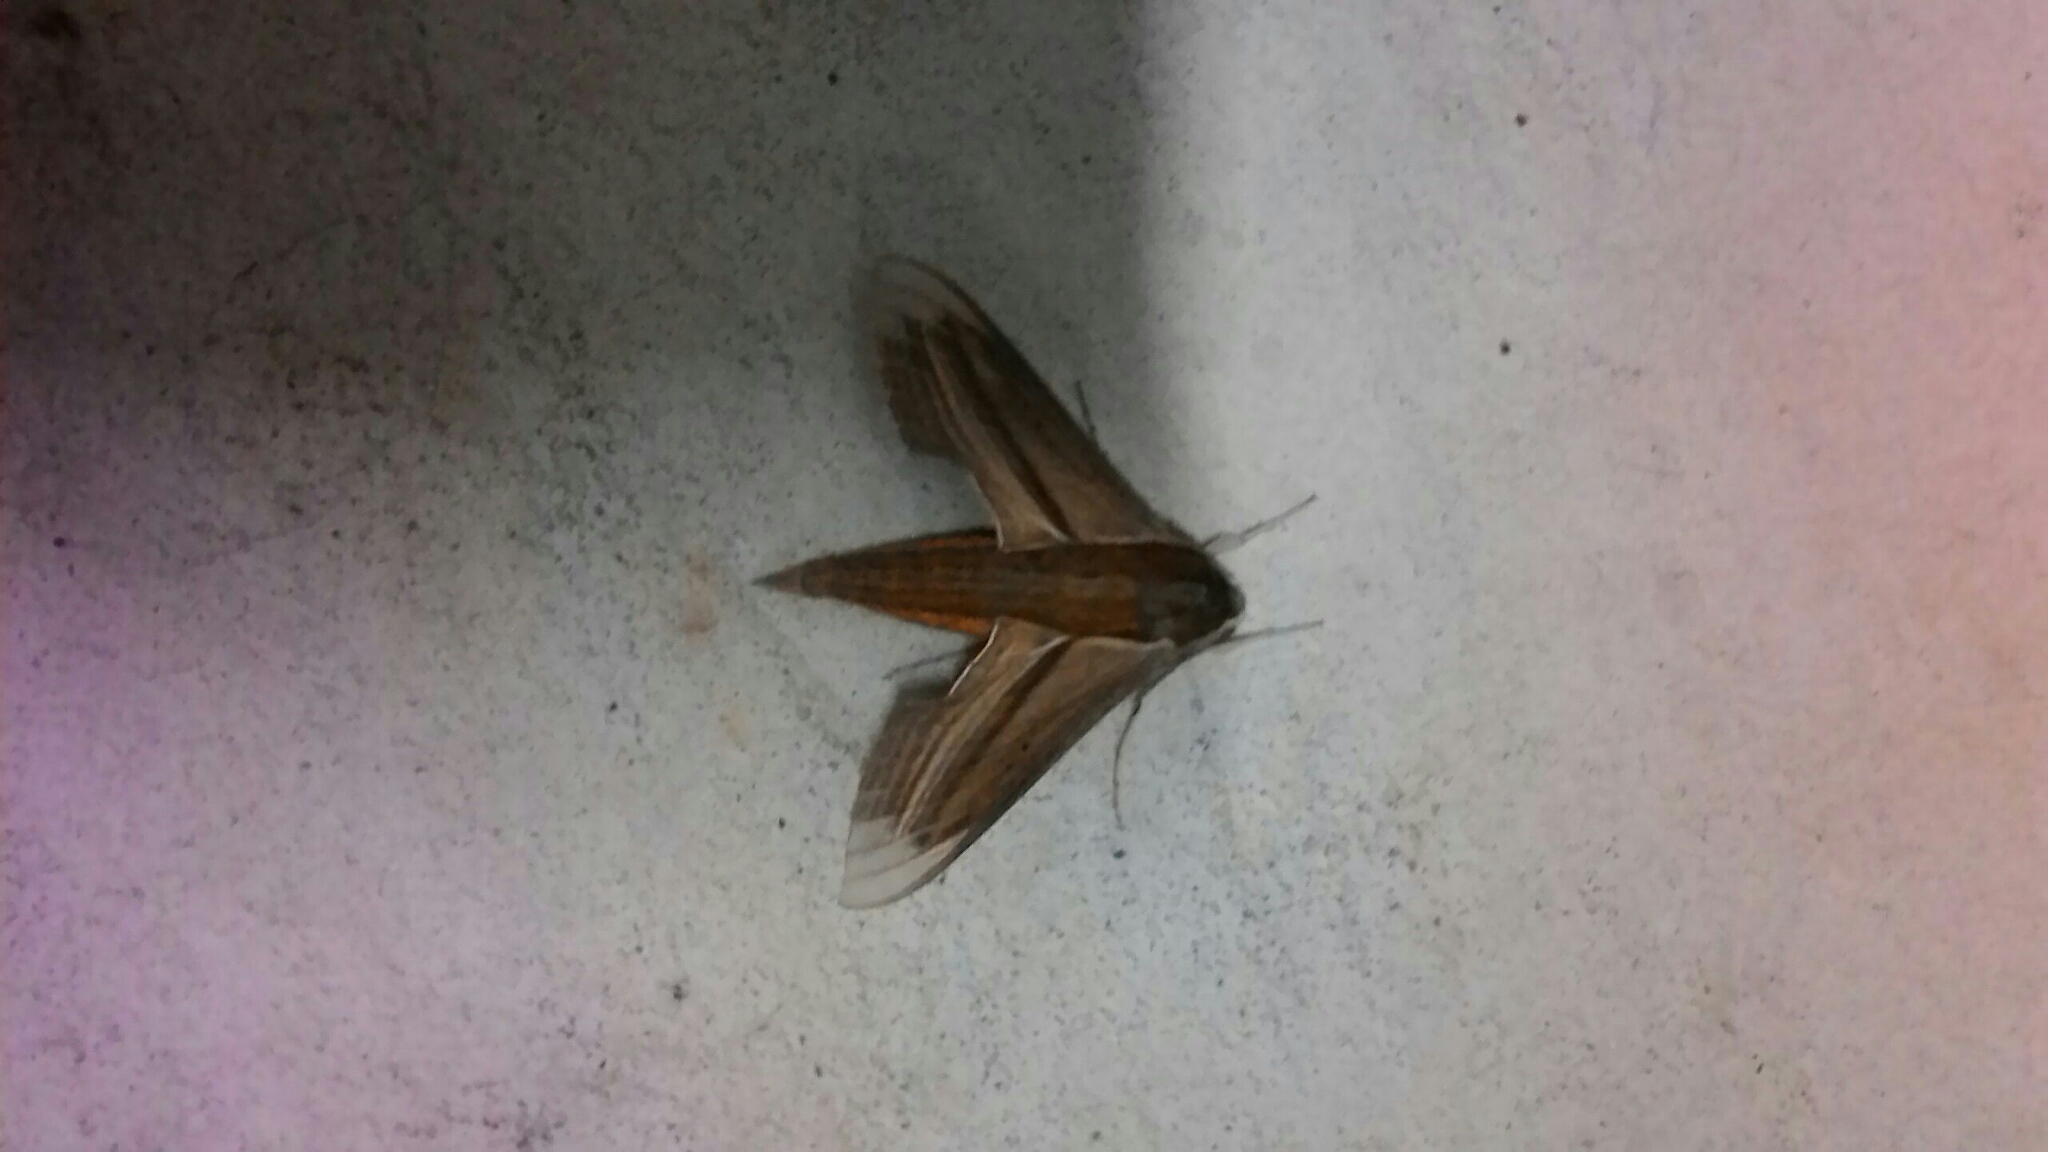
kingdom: Animalia
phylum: Arthropoda
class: Insecta
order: Lepidoptera
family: Sphingidae
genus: Theretra
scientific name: Theretra japonica
